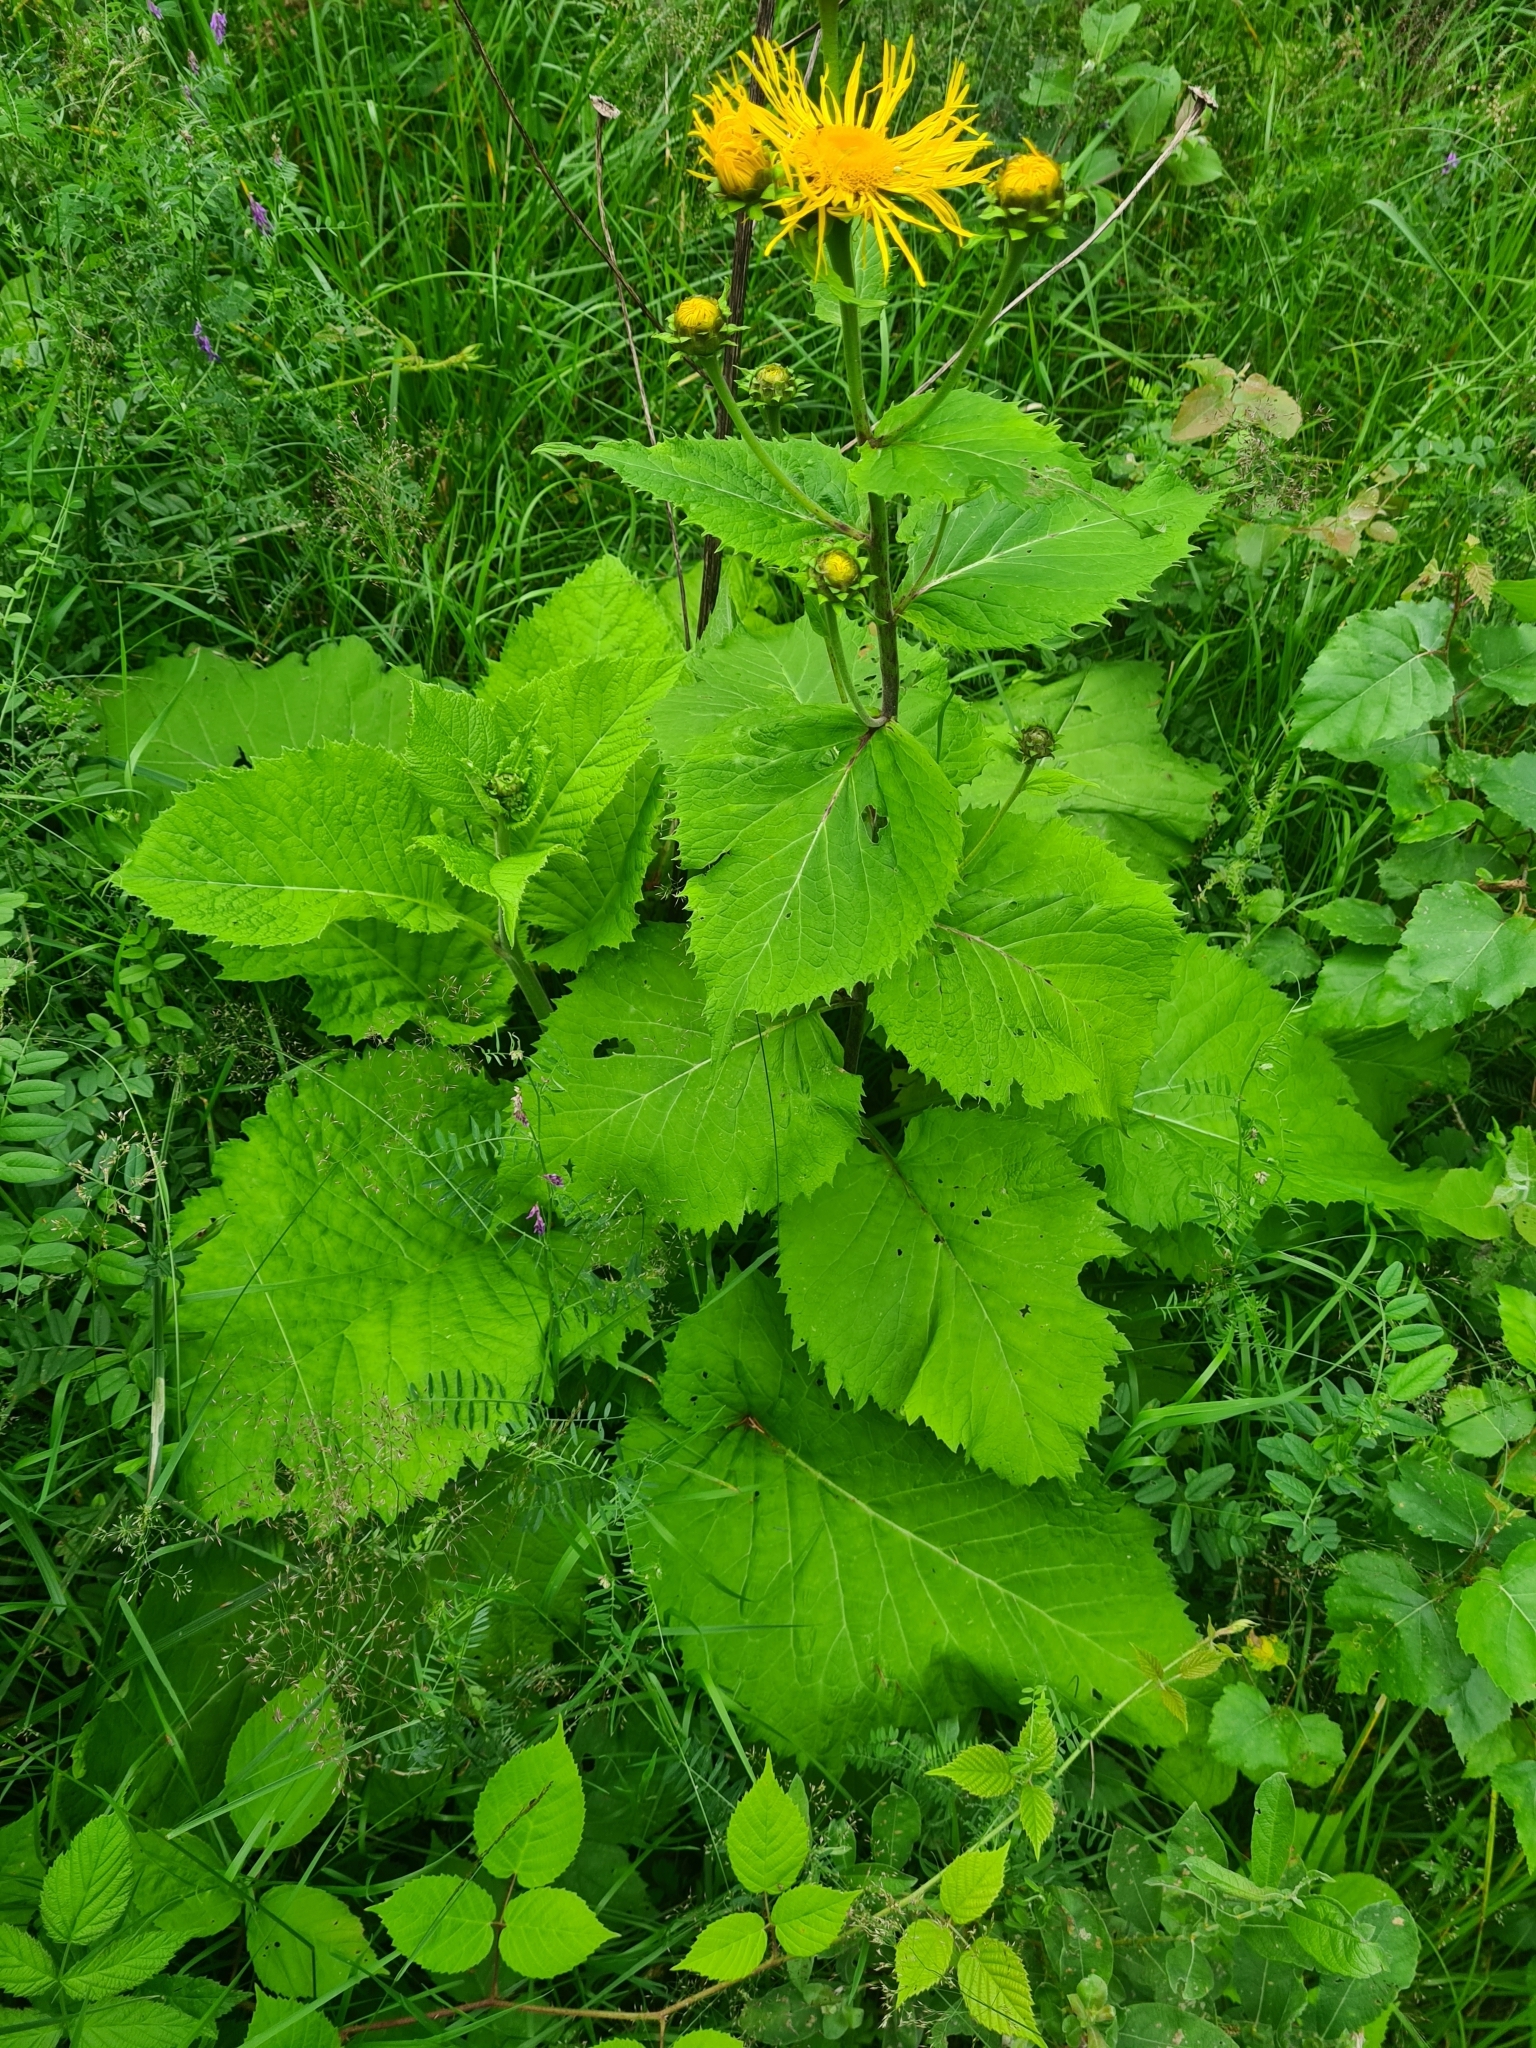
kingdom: Plantae
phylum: Tracheophyta
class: Magnoliopsida
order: Asterales
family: Asteraceae
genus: Telekia
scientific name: Telekia speciosa
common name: Yellow oxeye
